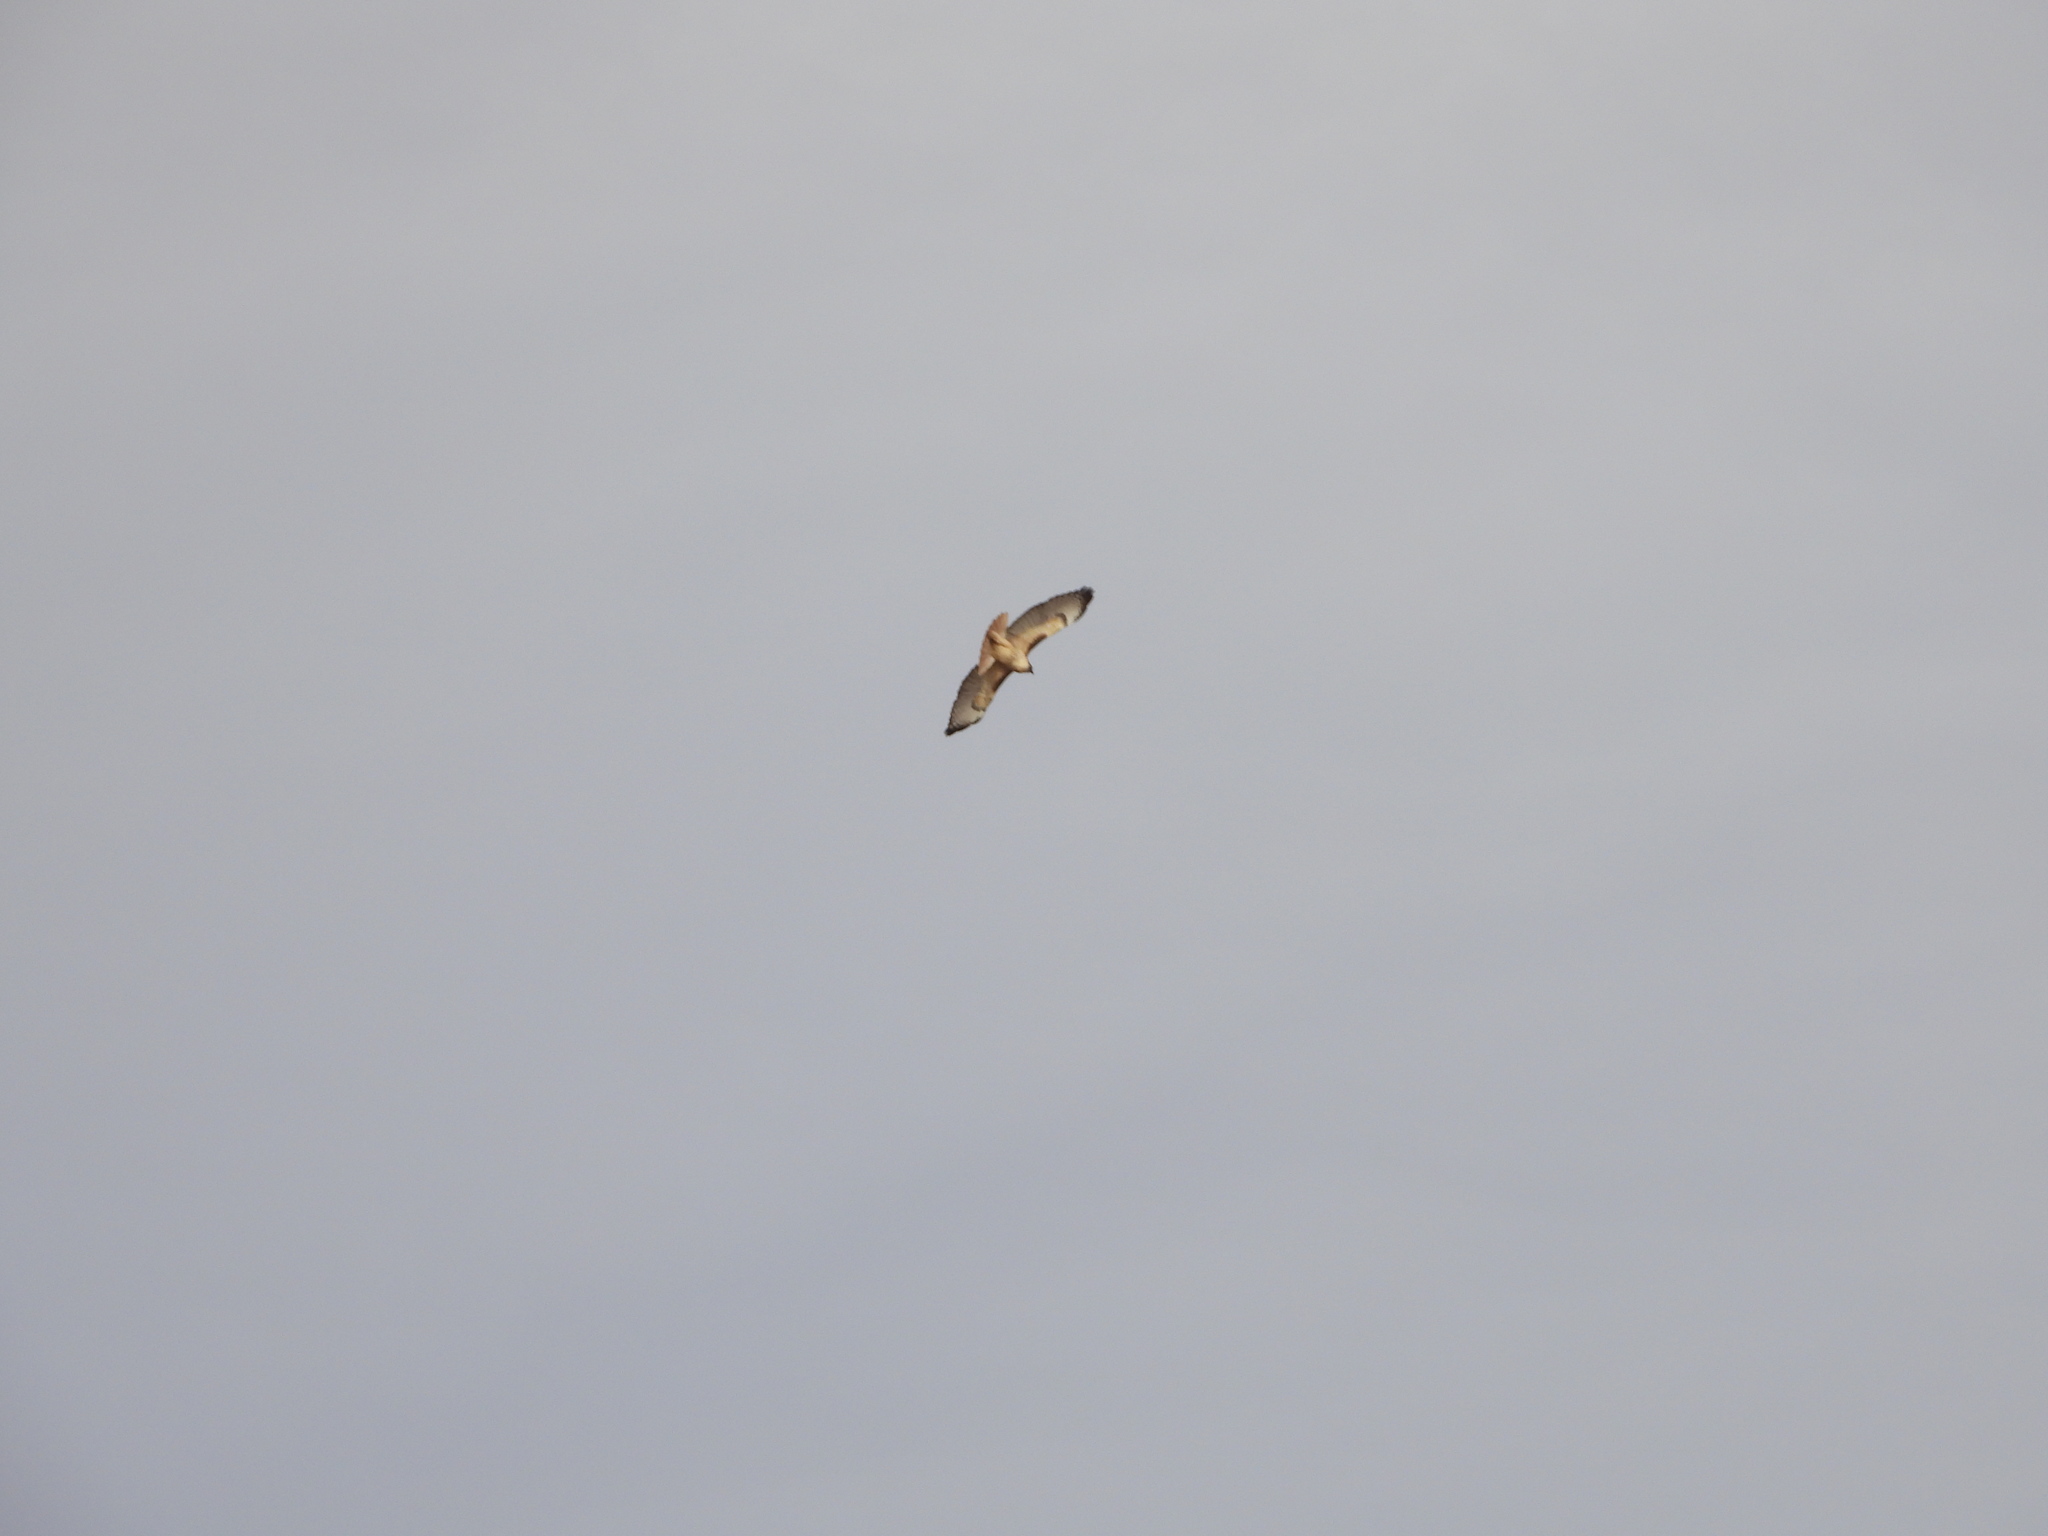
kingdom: Animalia
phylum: Chordata
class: Aves
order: Accipitriformes
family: Accipitridae
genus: Buteo
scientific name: Buteo jamaicensis
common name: Red-tailed hawk
